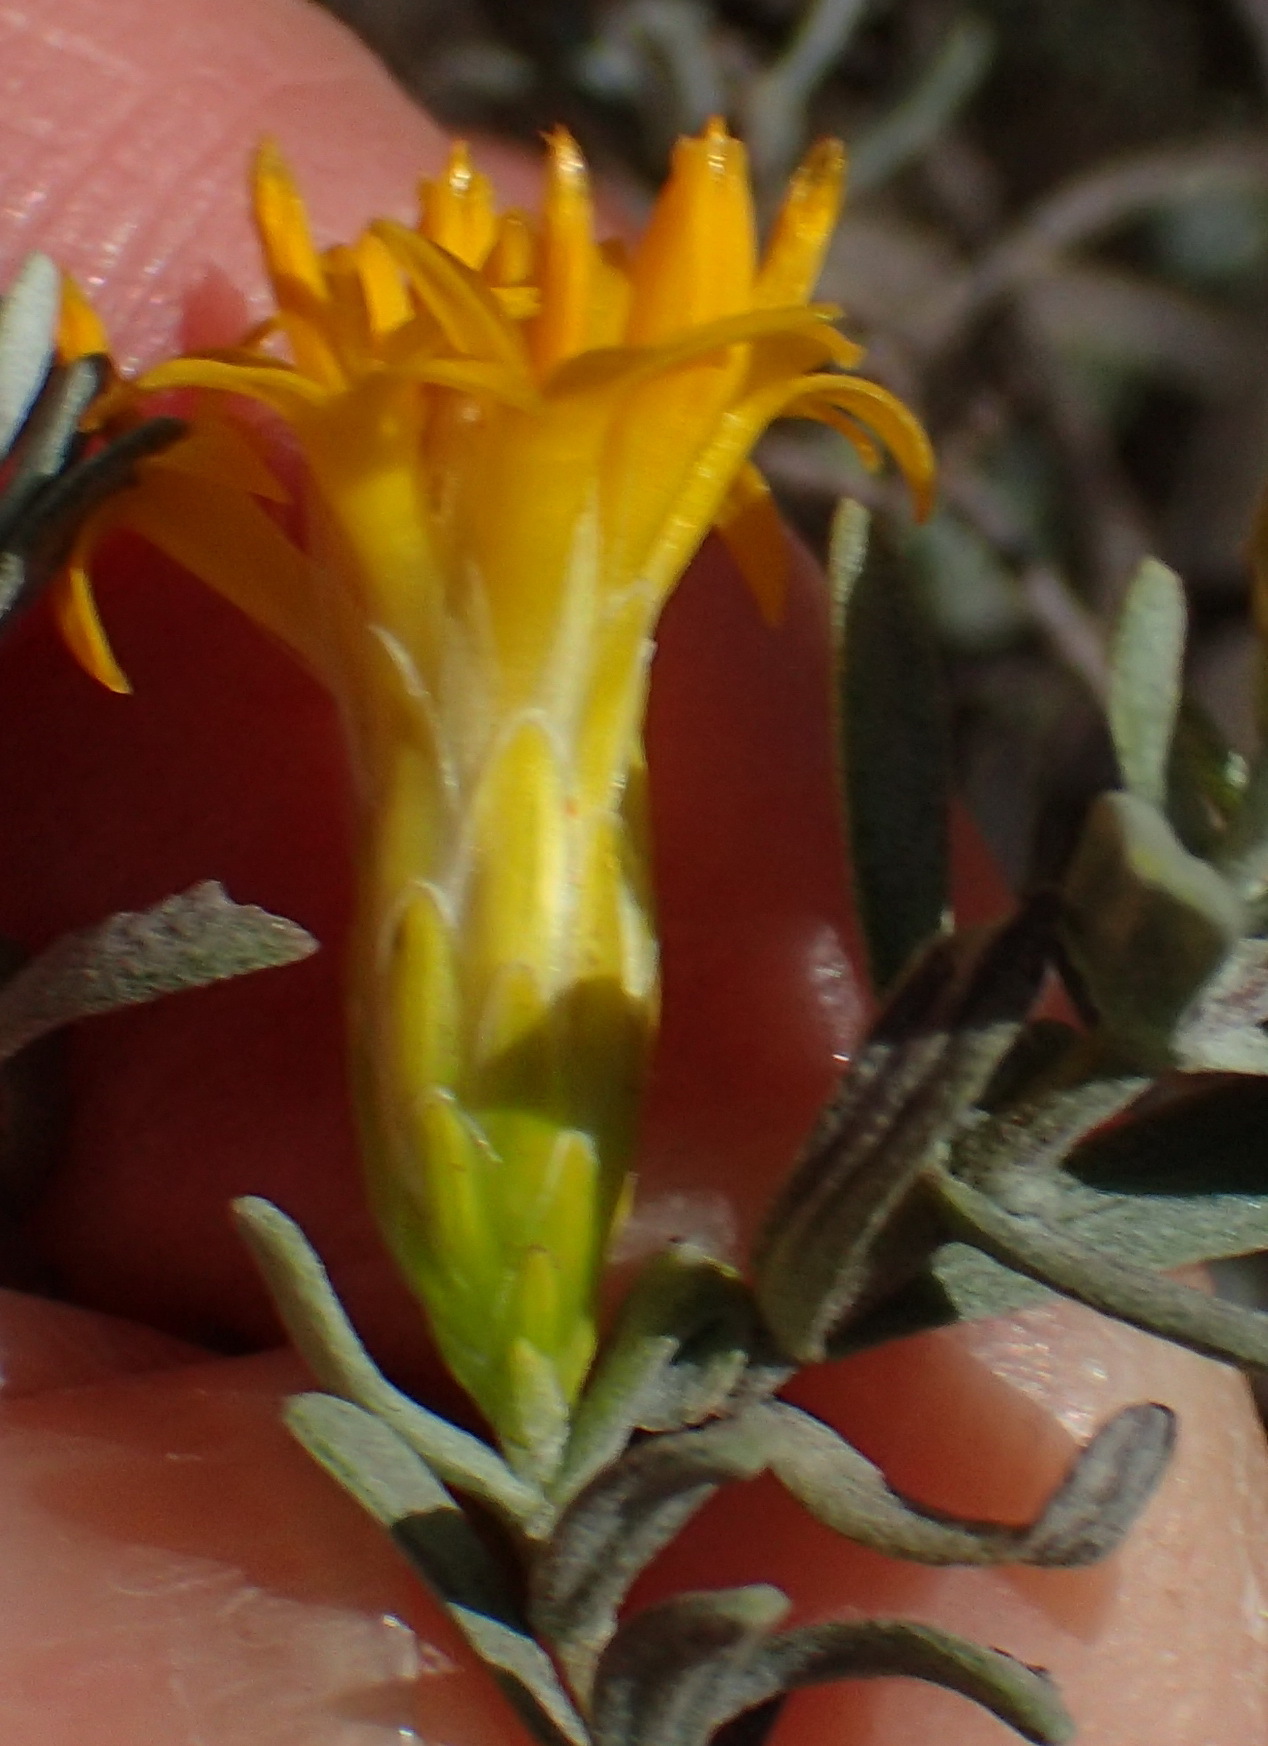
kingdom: Plantae
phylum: Tracheophyta
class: Magnoliopsida
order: Asterales
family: Asteraceae
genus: Pteronia
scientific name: Pteronia incana
